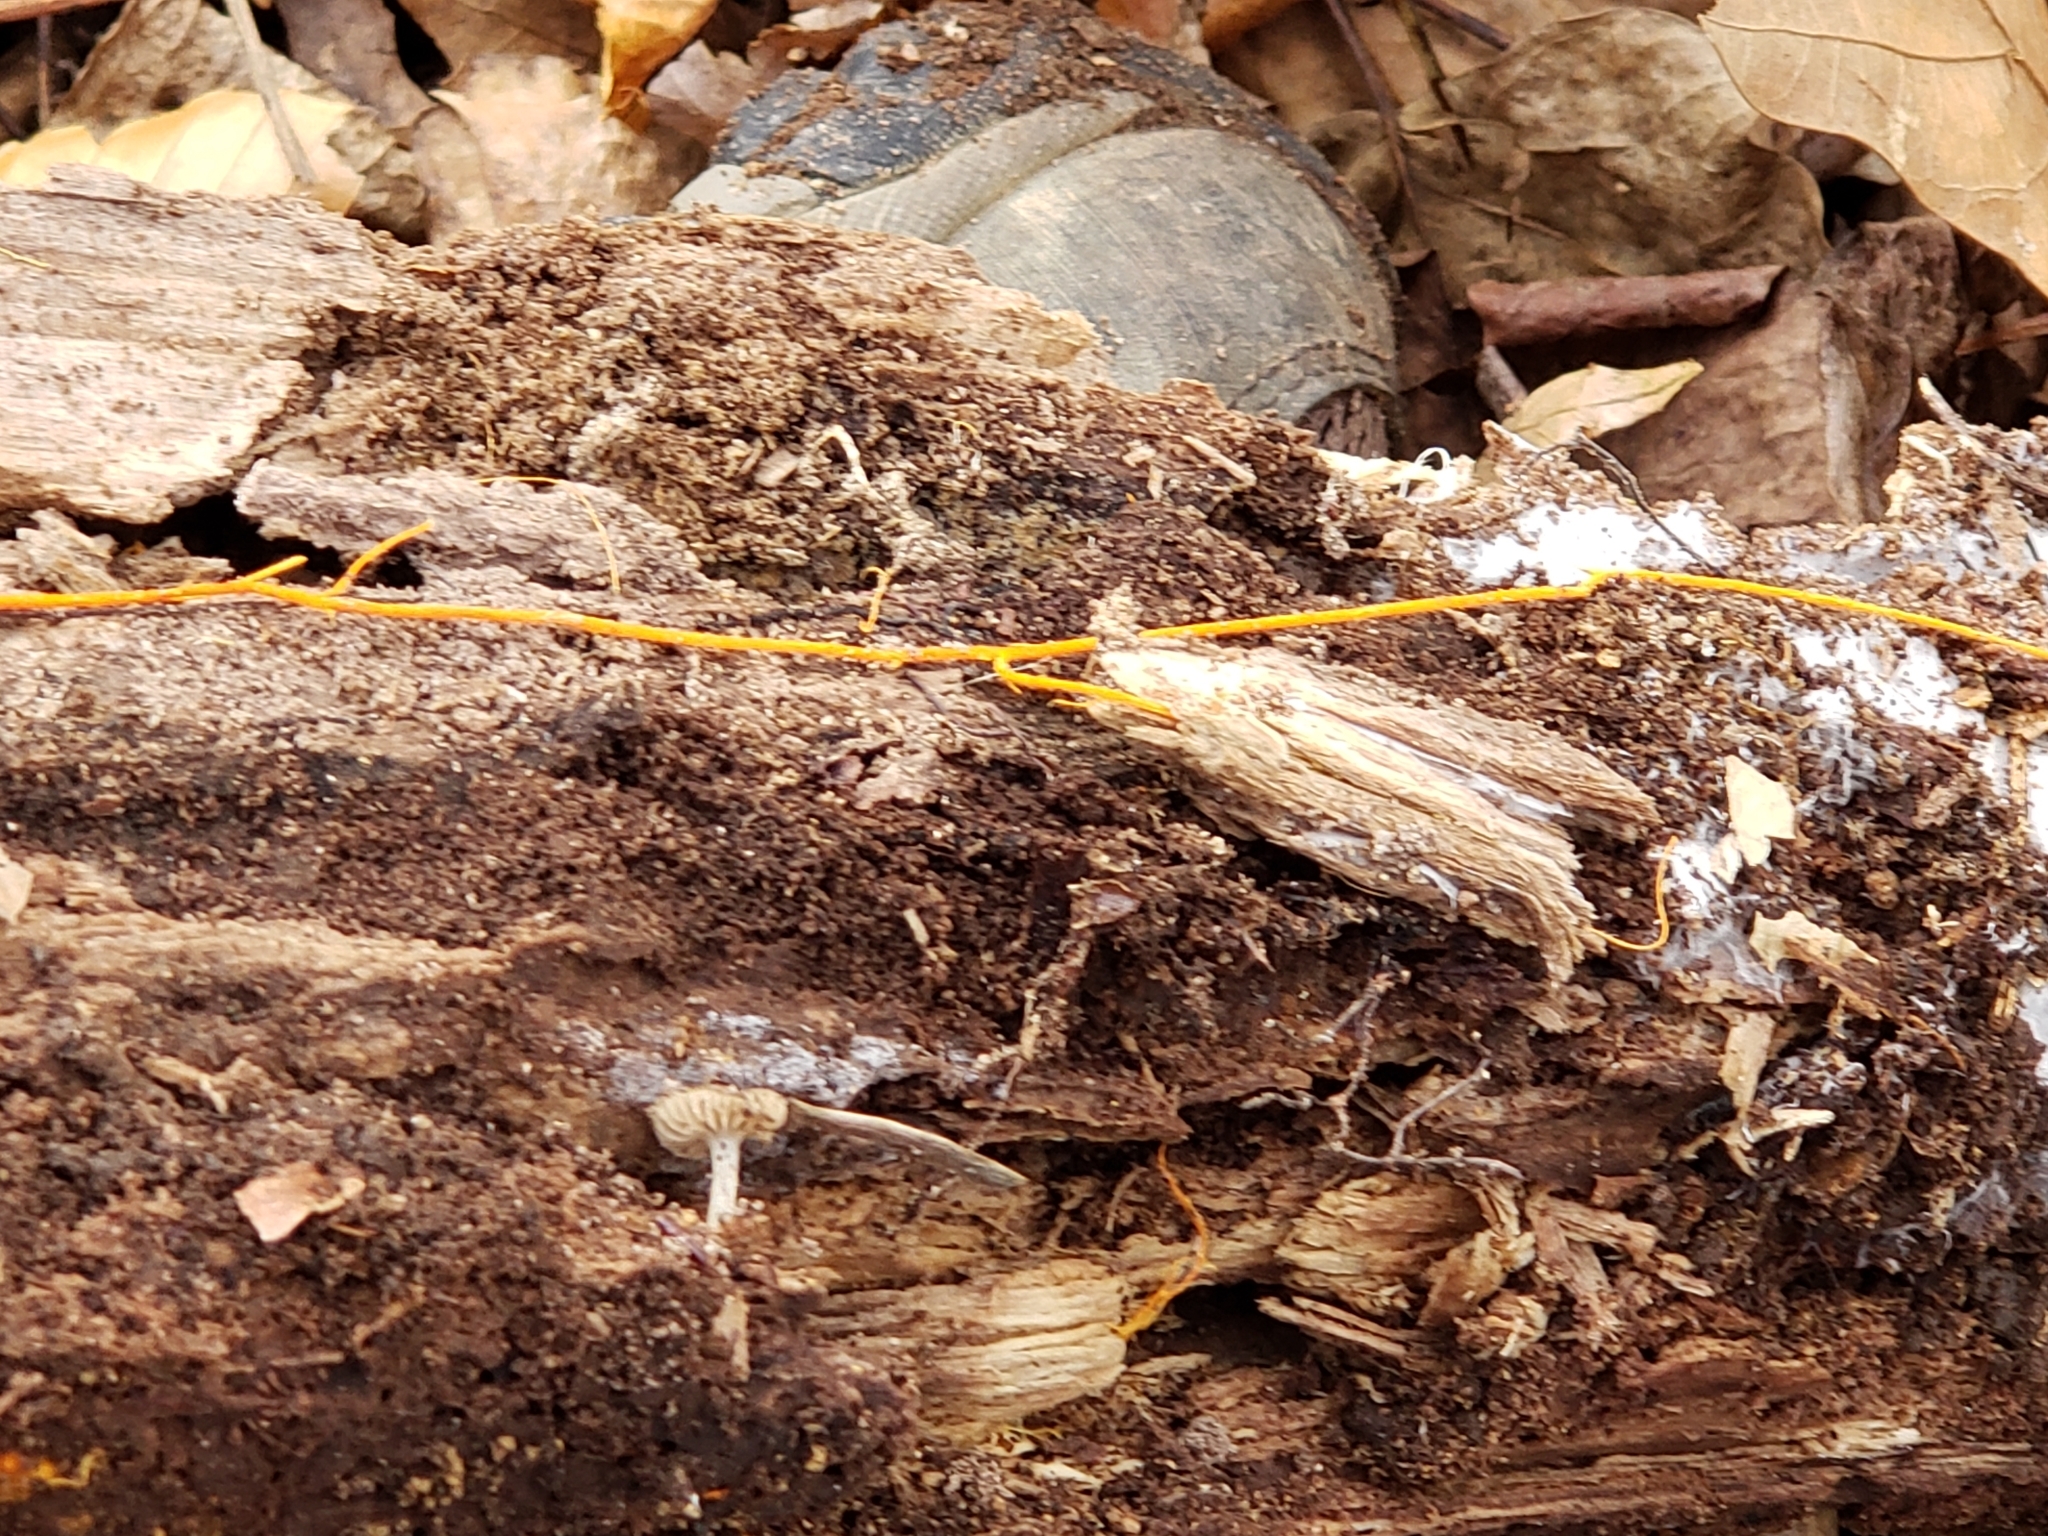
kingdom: Fungi
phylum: Basidiomycota
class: Agaricomycetes
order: Polyporales
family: Meruliaceae
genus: Hydnophlebia
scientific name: Hydnophlebia chrysorhiza
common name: Spreading yellow tooth
